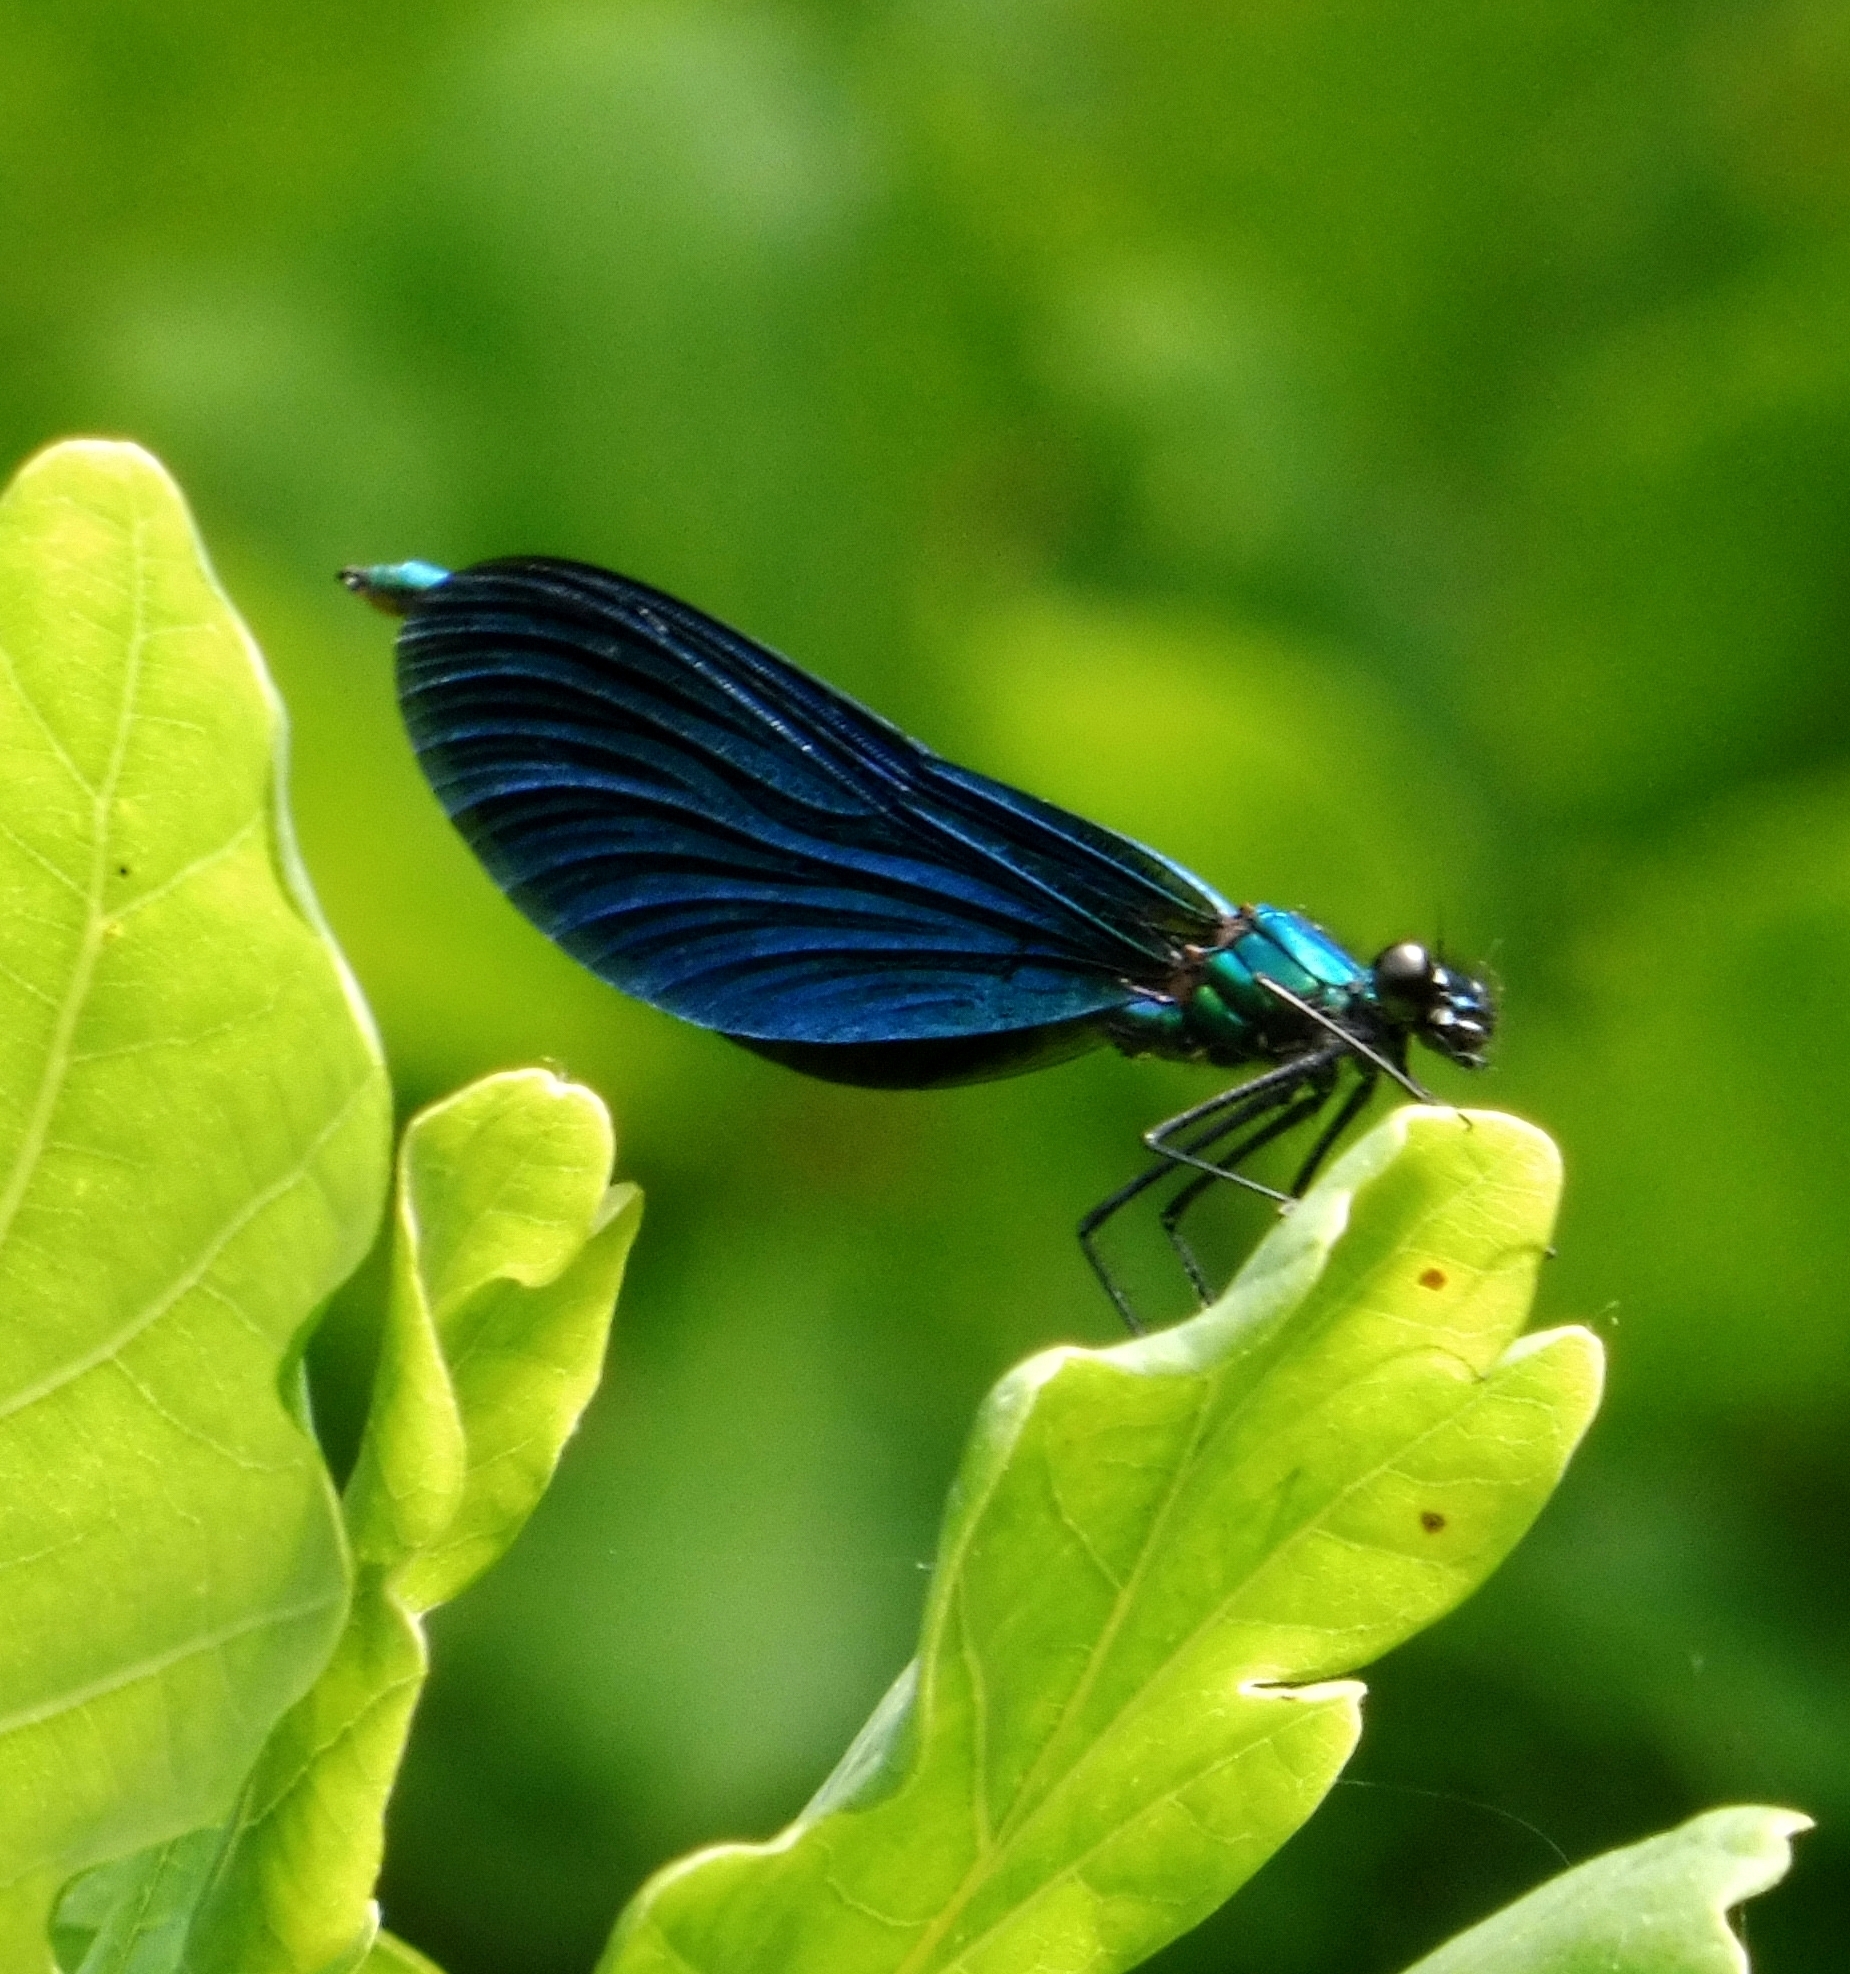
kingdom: Animalia
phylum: Arthropoda
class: Insecta
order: Odonata
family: Calopterygidae
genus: Calopteryx
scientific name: Calopteryx virgo
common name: Beautiful demoiselle
